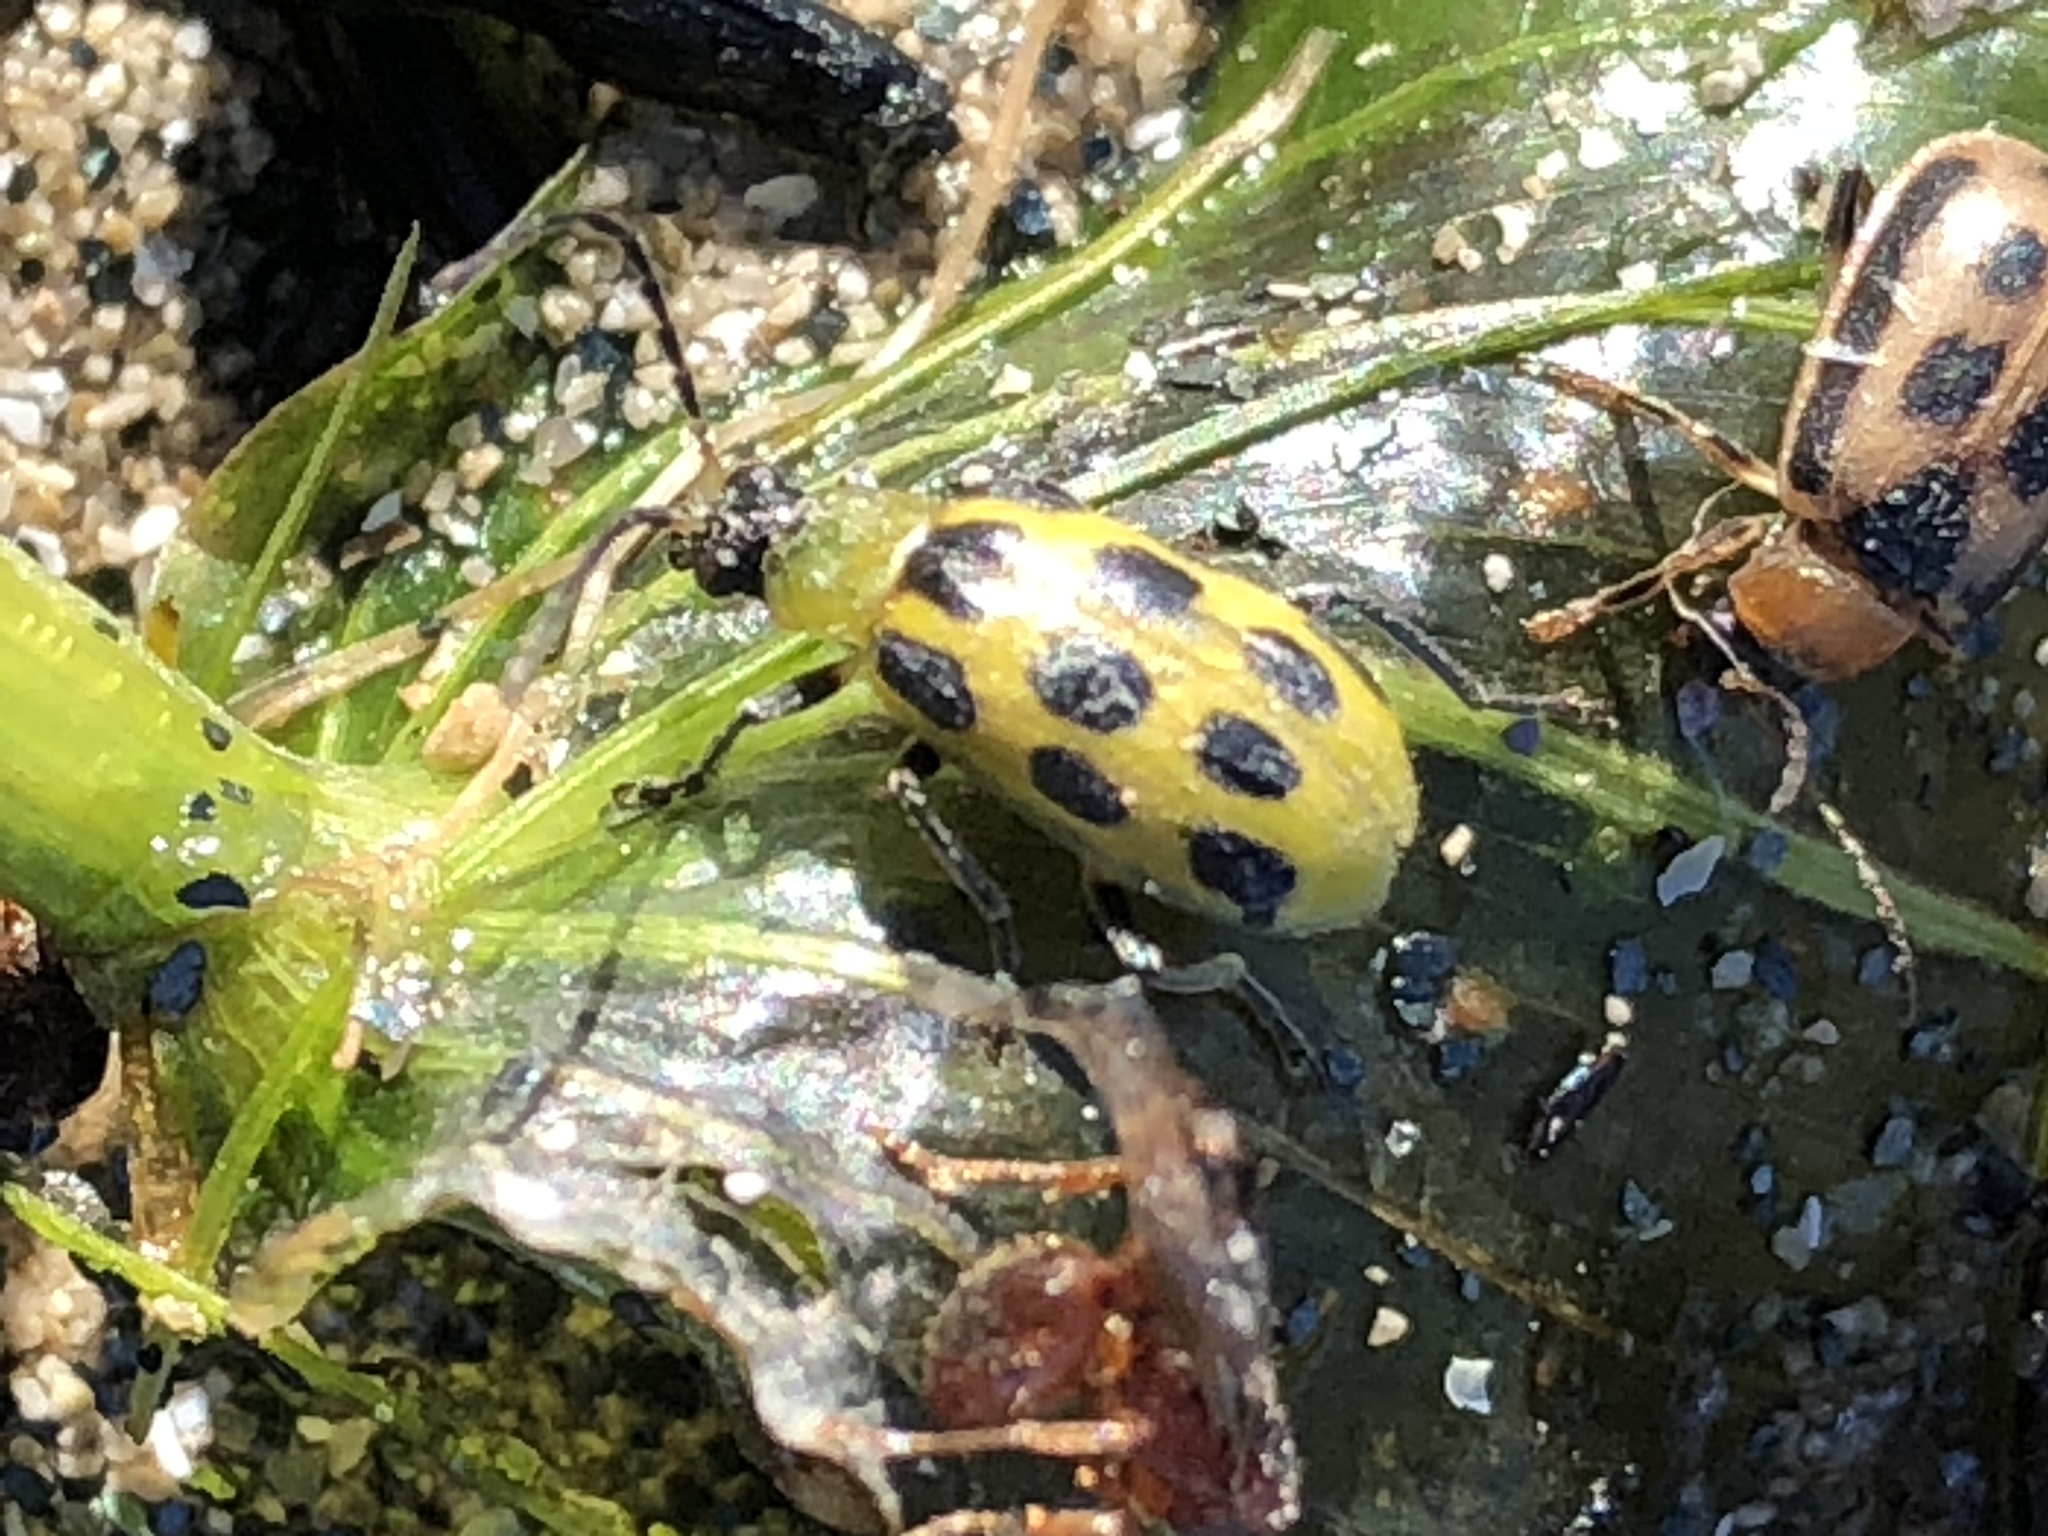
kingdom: Animalia
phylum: Arthropoda
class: Insecta
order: Coleoptera
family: Chrysomelidae
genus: Diabrotica
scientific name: Diabrotica undecimpunctata
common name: Spotted cucumber beetle
